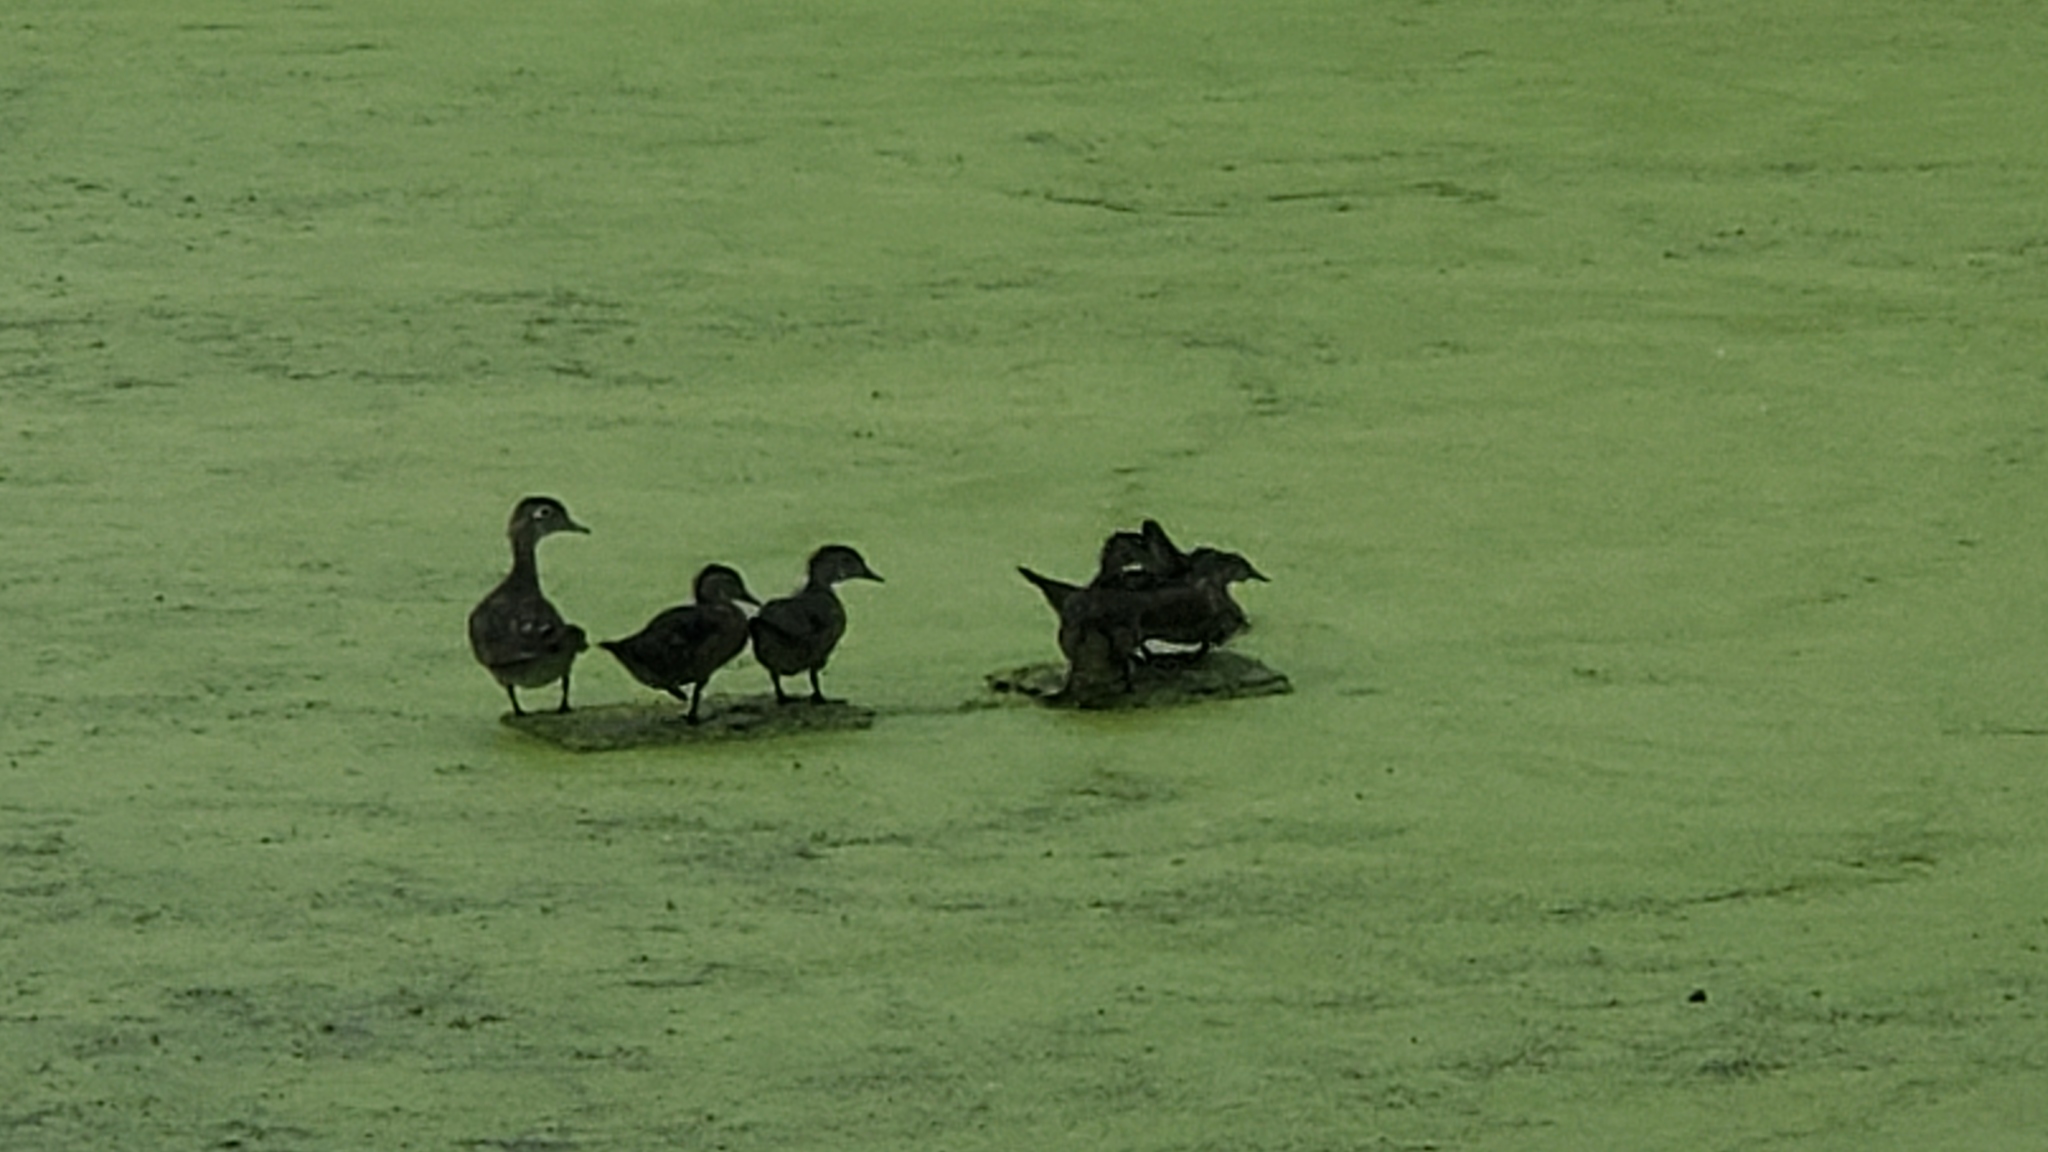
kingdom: Animalia
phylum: Chordata
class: Aves
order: Anseriformes
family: Anatidae
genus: Aix
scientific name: Aix sponsa
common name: Wood duck
